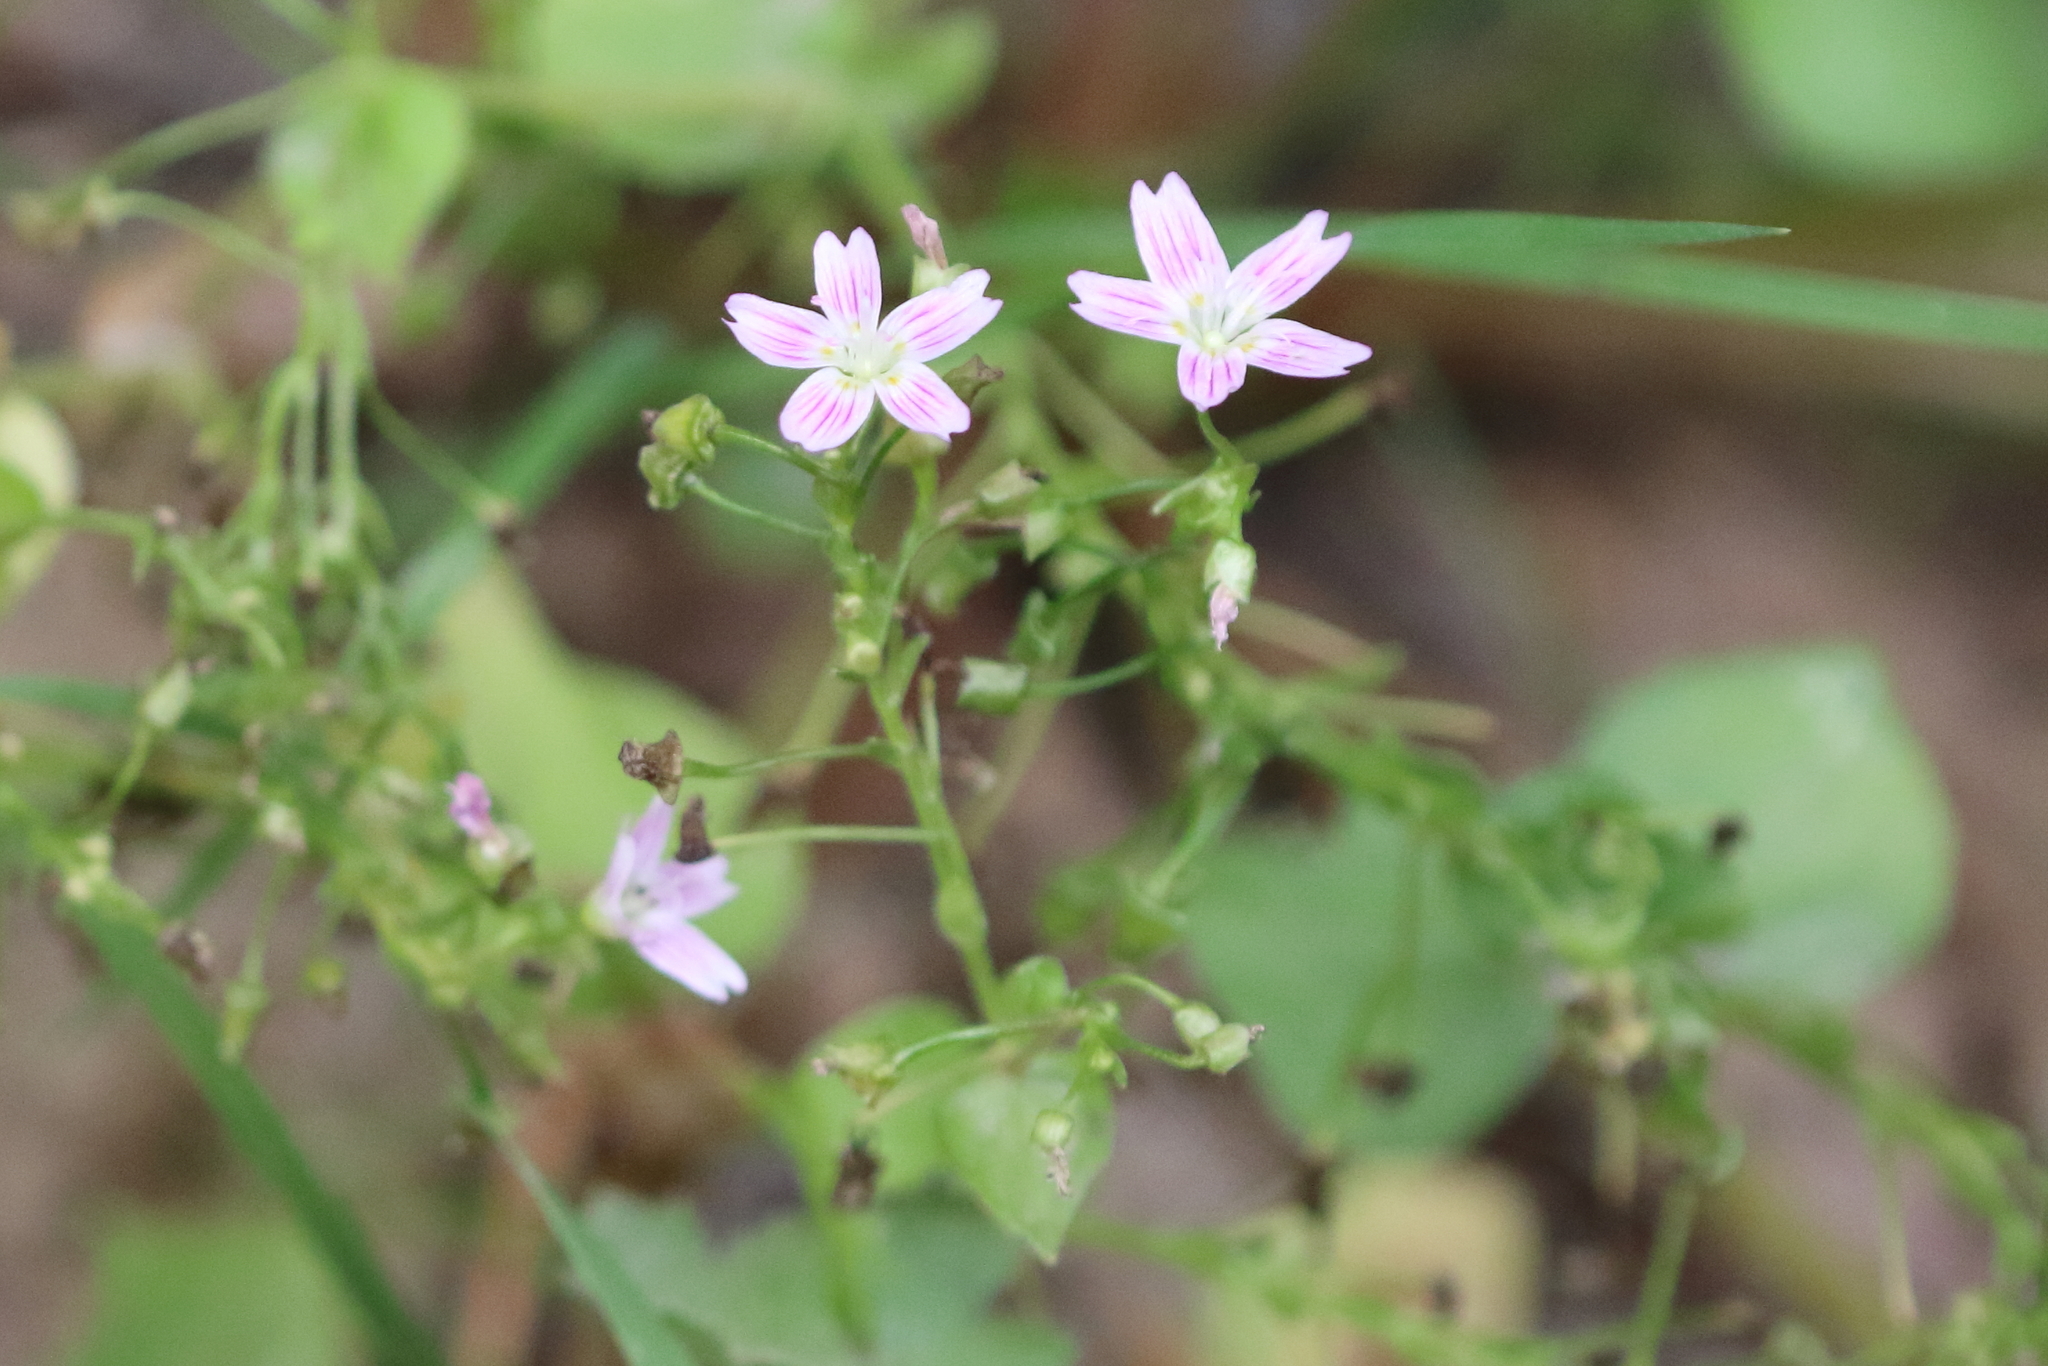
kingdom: Plantae
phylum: Tracheophyta
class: Magnoliopsida
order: Caryophyllales
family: Montiaceae
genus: Claytonia
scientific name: Claytonia sibirica
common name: Pink purslane
